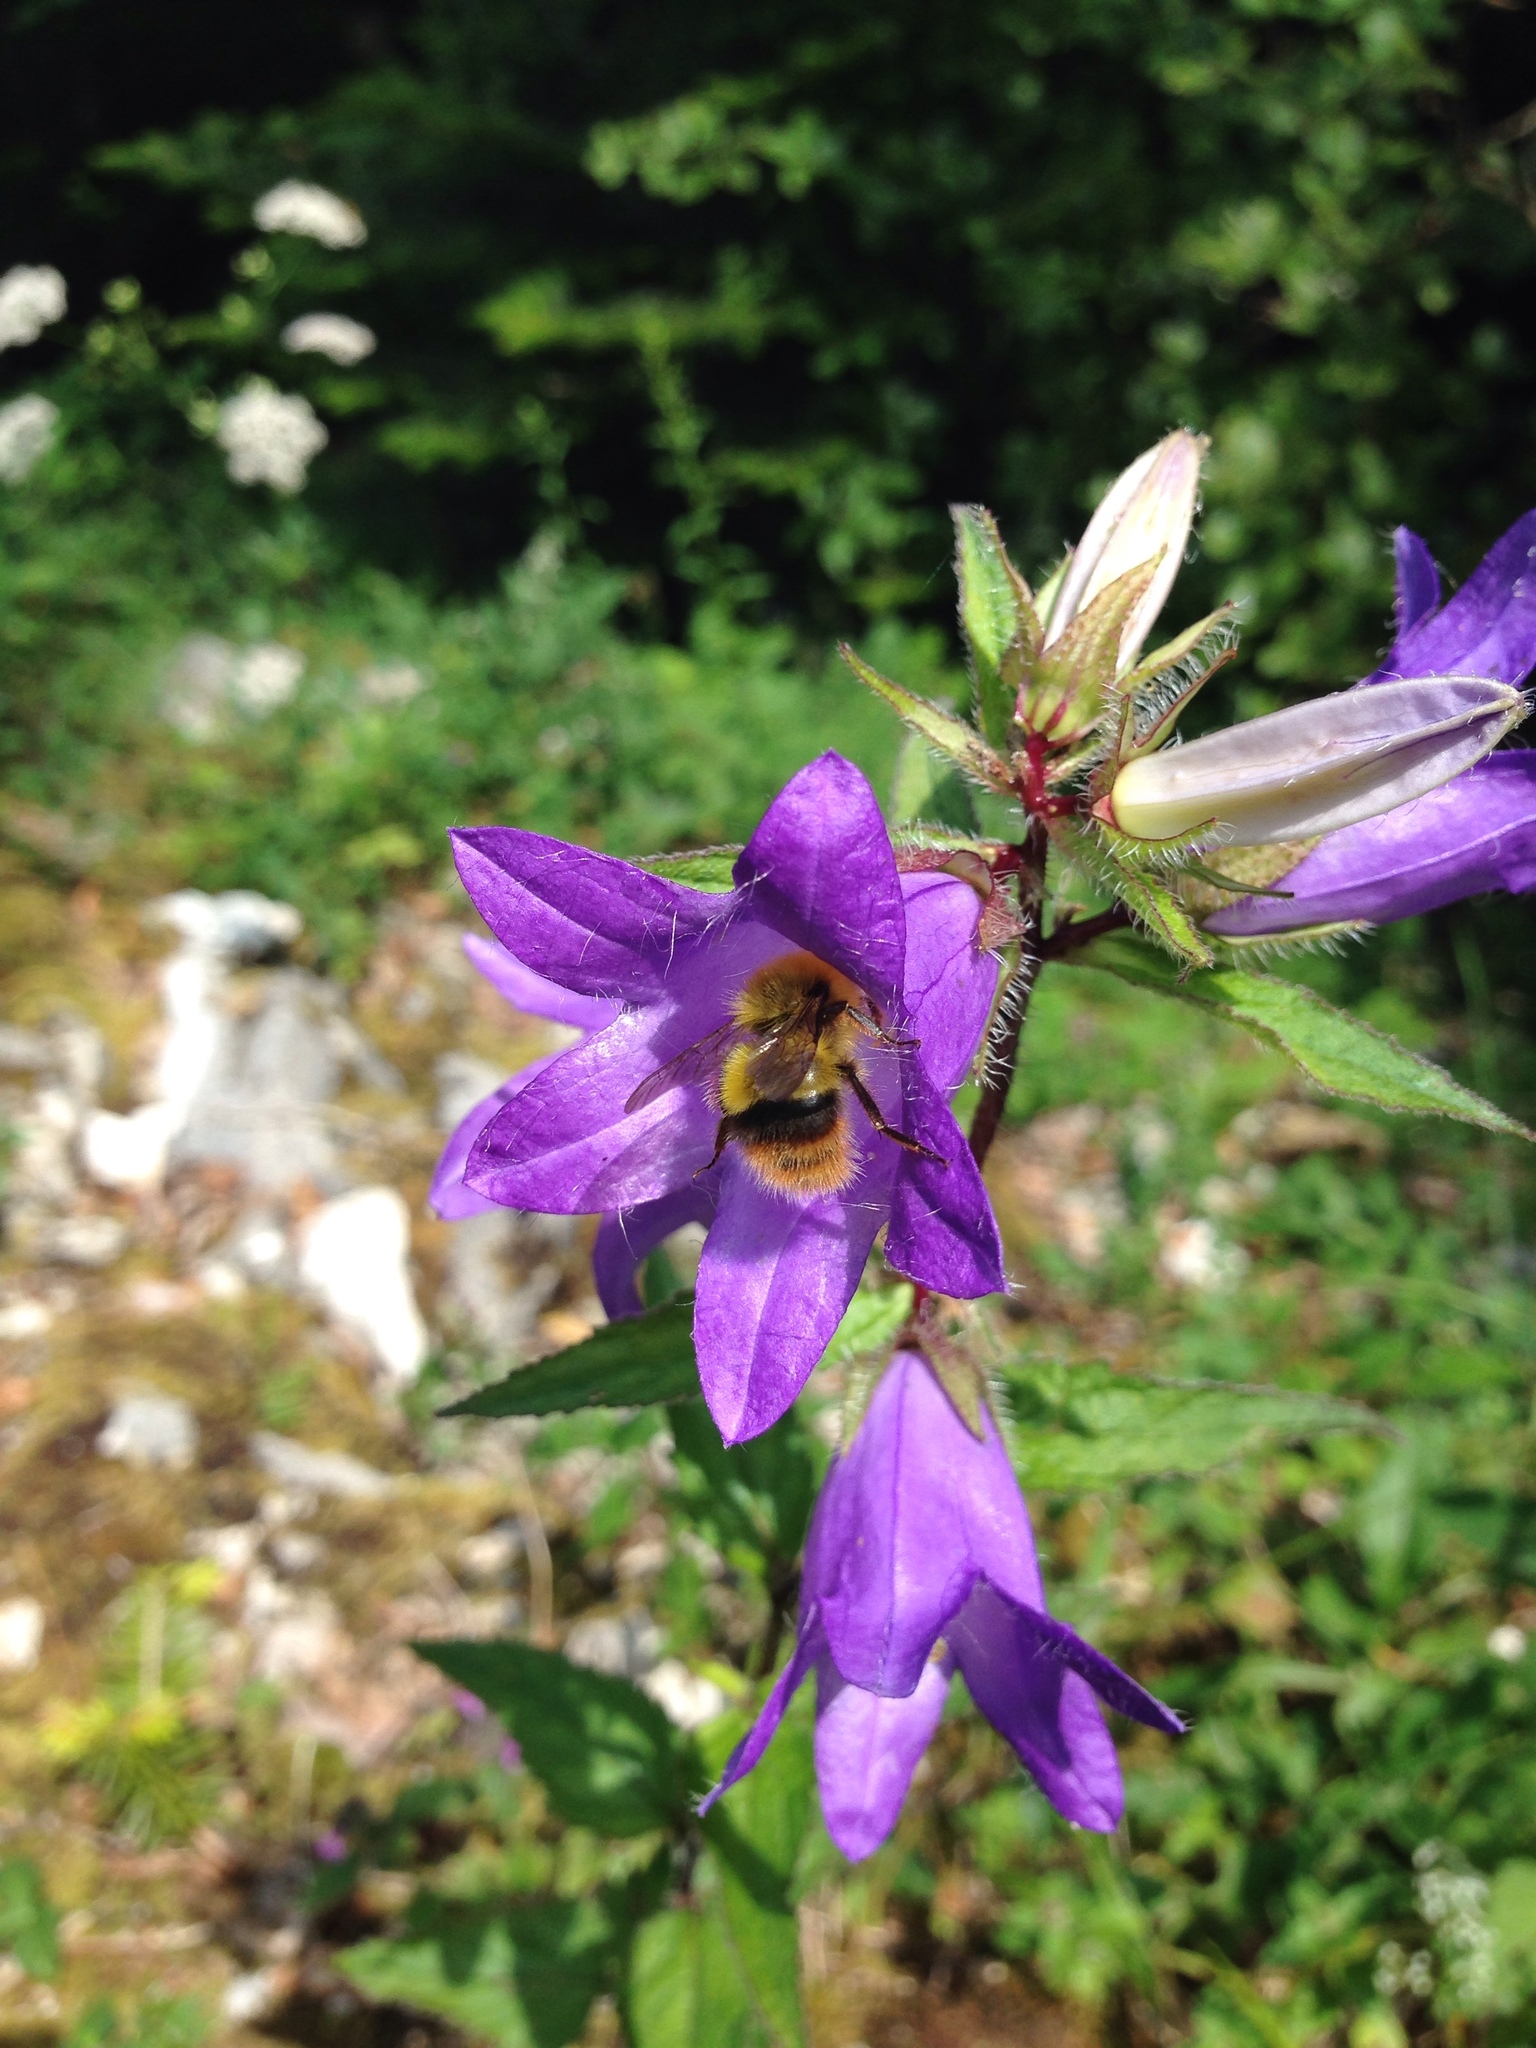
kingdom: Plantae
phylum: Tracheophyta
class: Magnoliopsida
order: Asterales
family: Campanulaceae
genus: Campanula
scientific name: Campanula trachelium
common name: Nettle-leaved bellflower
